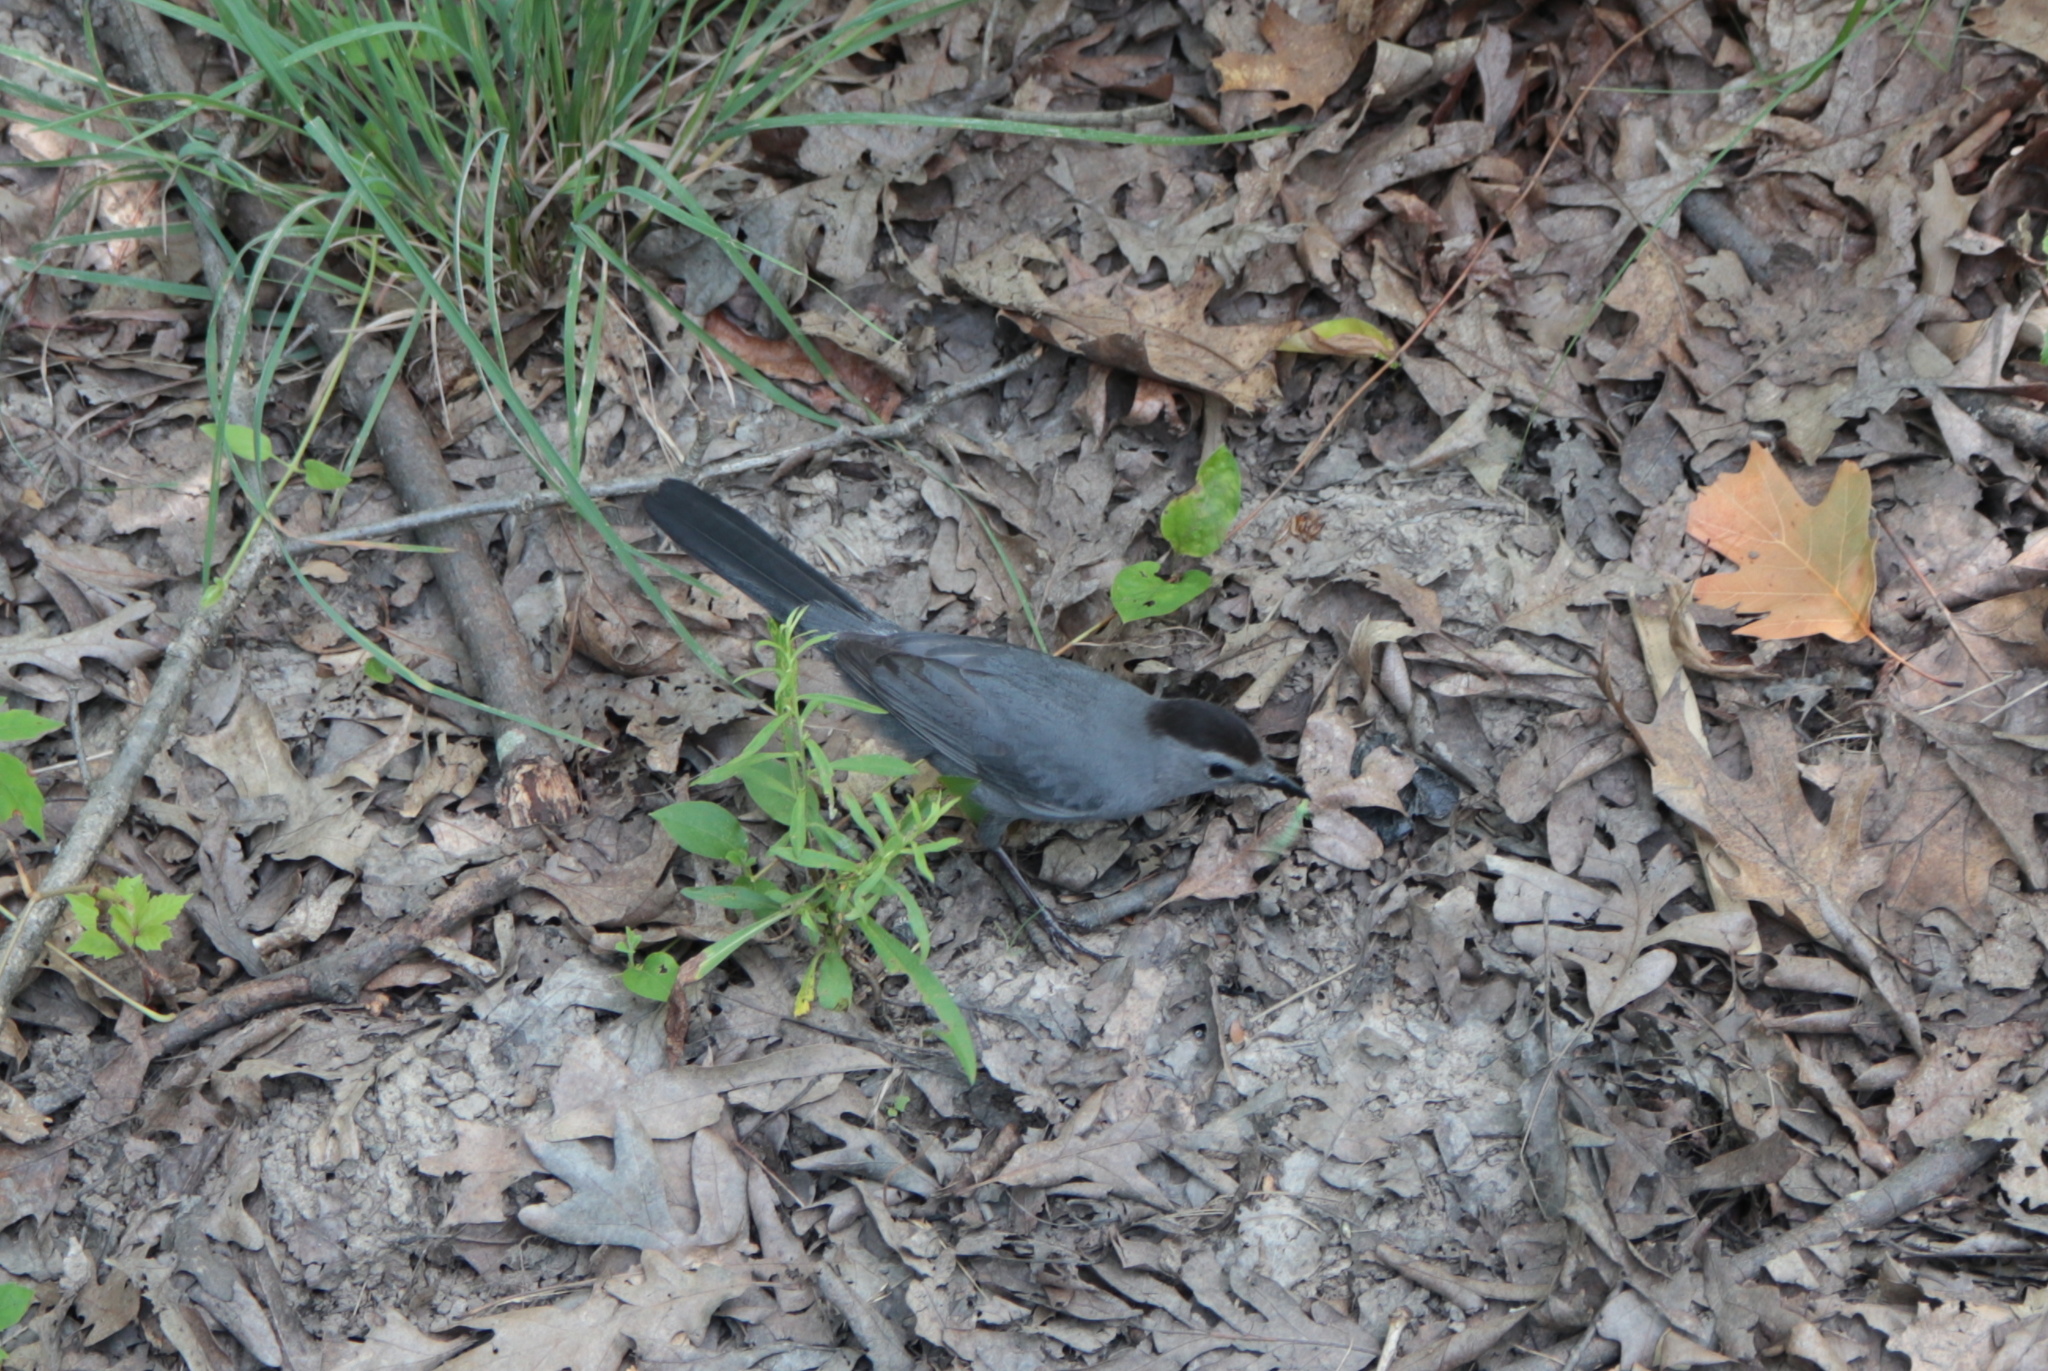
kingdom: Animalia
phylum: Chordata
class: Aves
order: Passeriformes
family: Mimidae
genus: Dumetella
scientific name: Dumetella carolinensis
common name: Gray catbird
